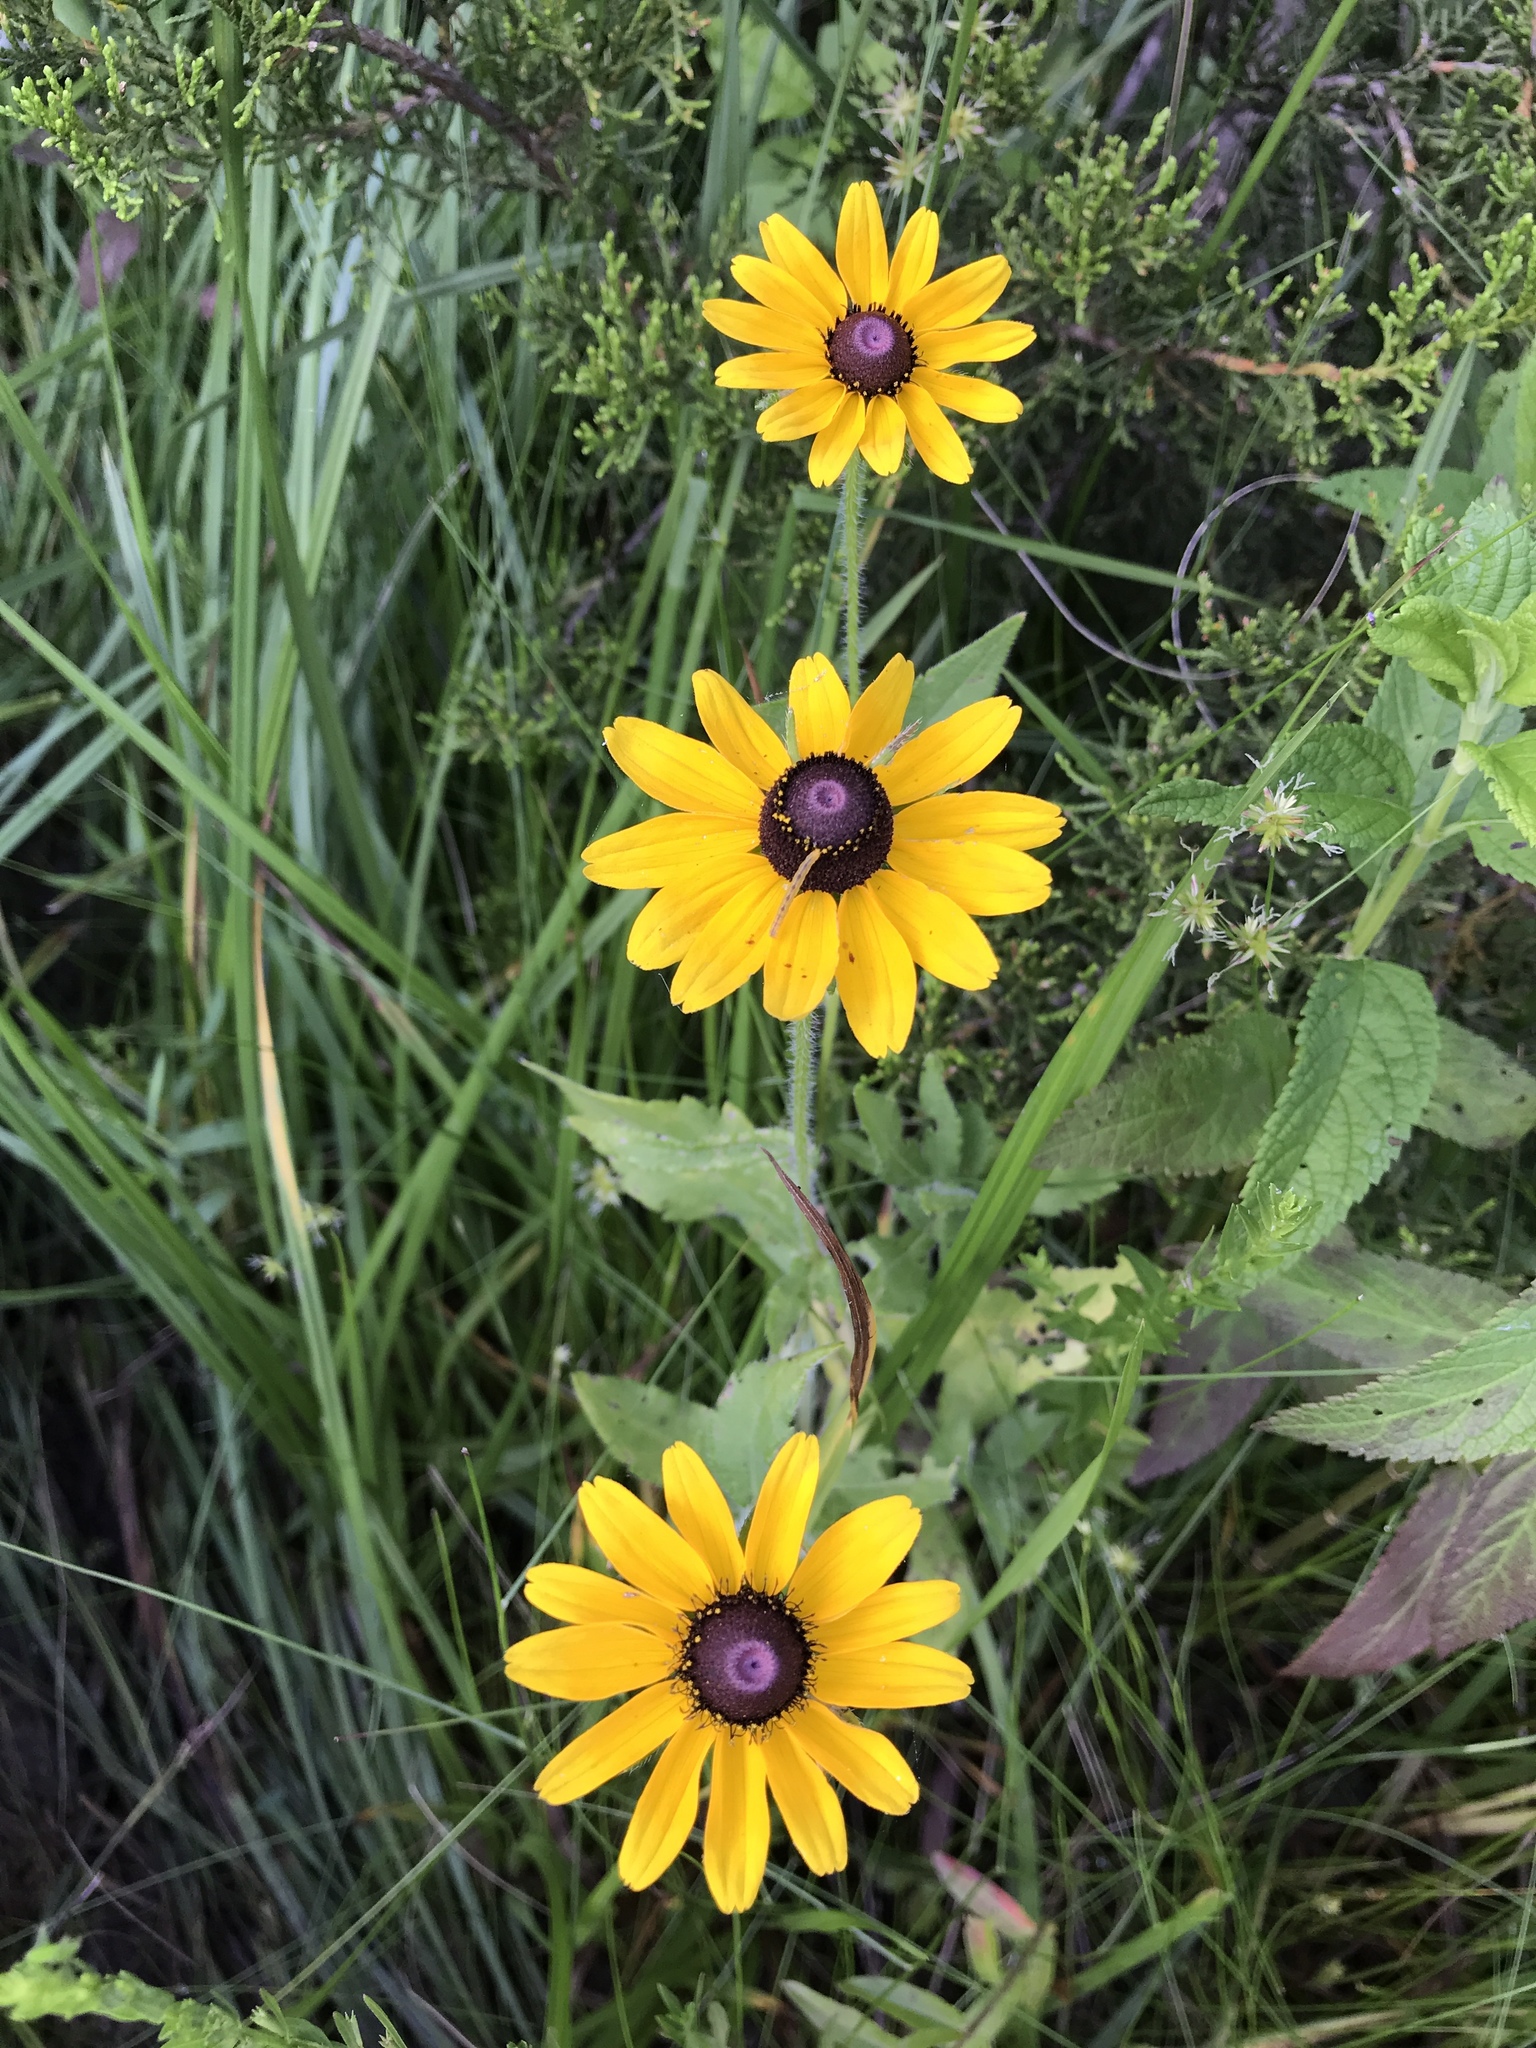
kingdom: Plantae
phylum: Tracheophyta
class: Magnoliopsida
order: Asterales
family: Asteraceae
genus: Rudbeckia
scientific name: Rudbeckia hirta
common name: Black-eyed-susan
